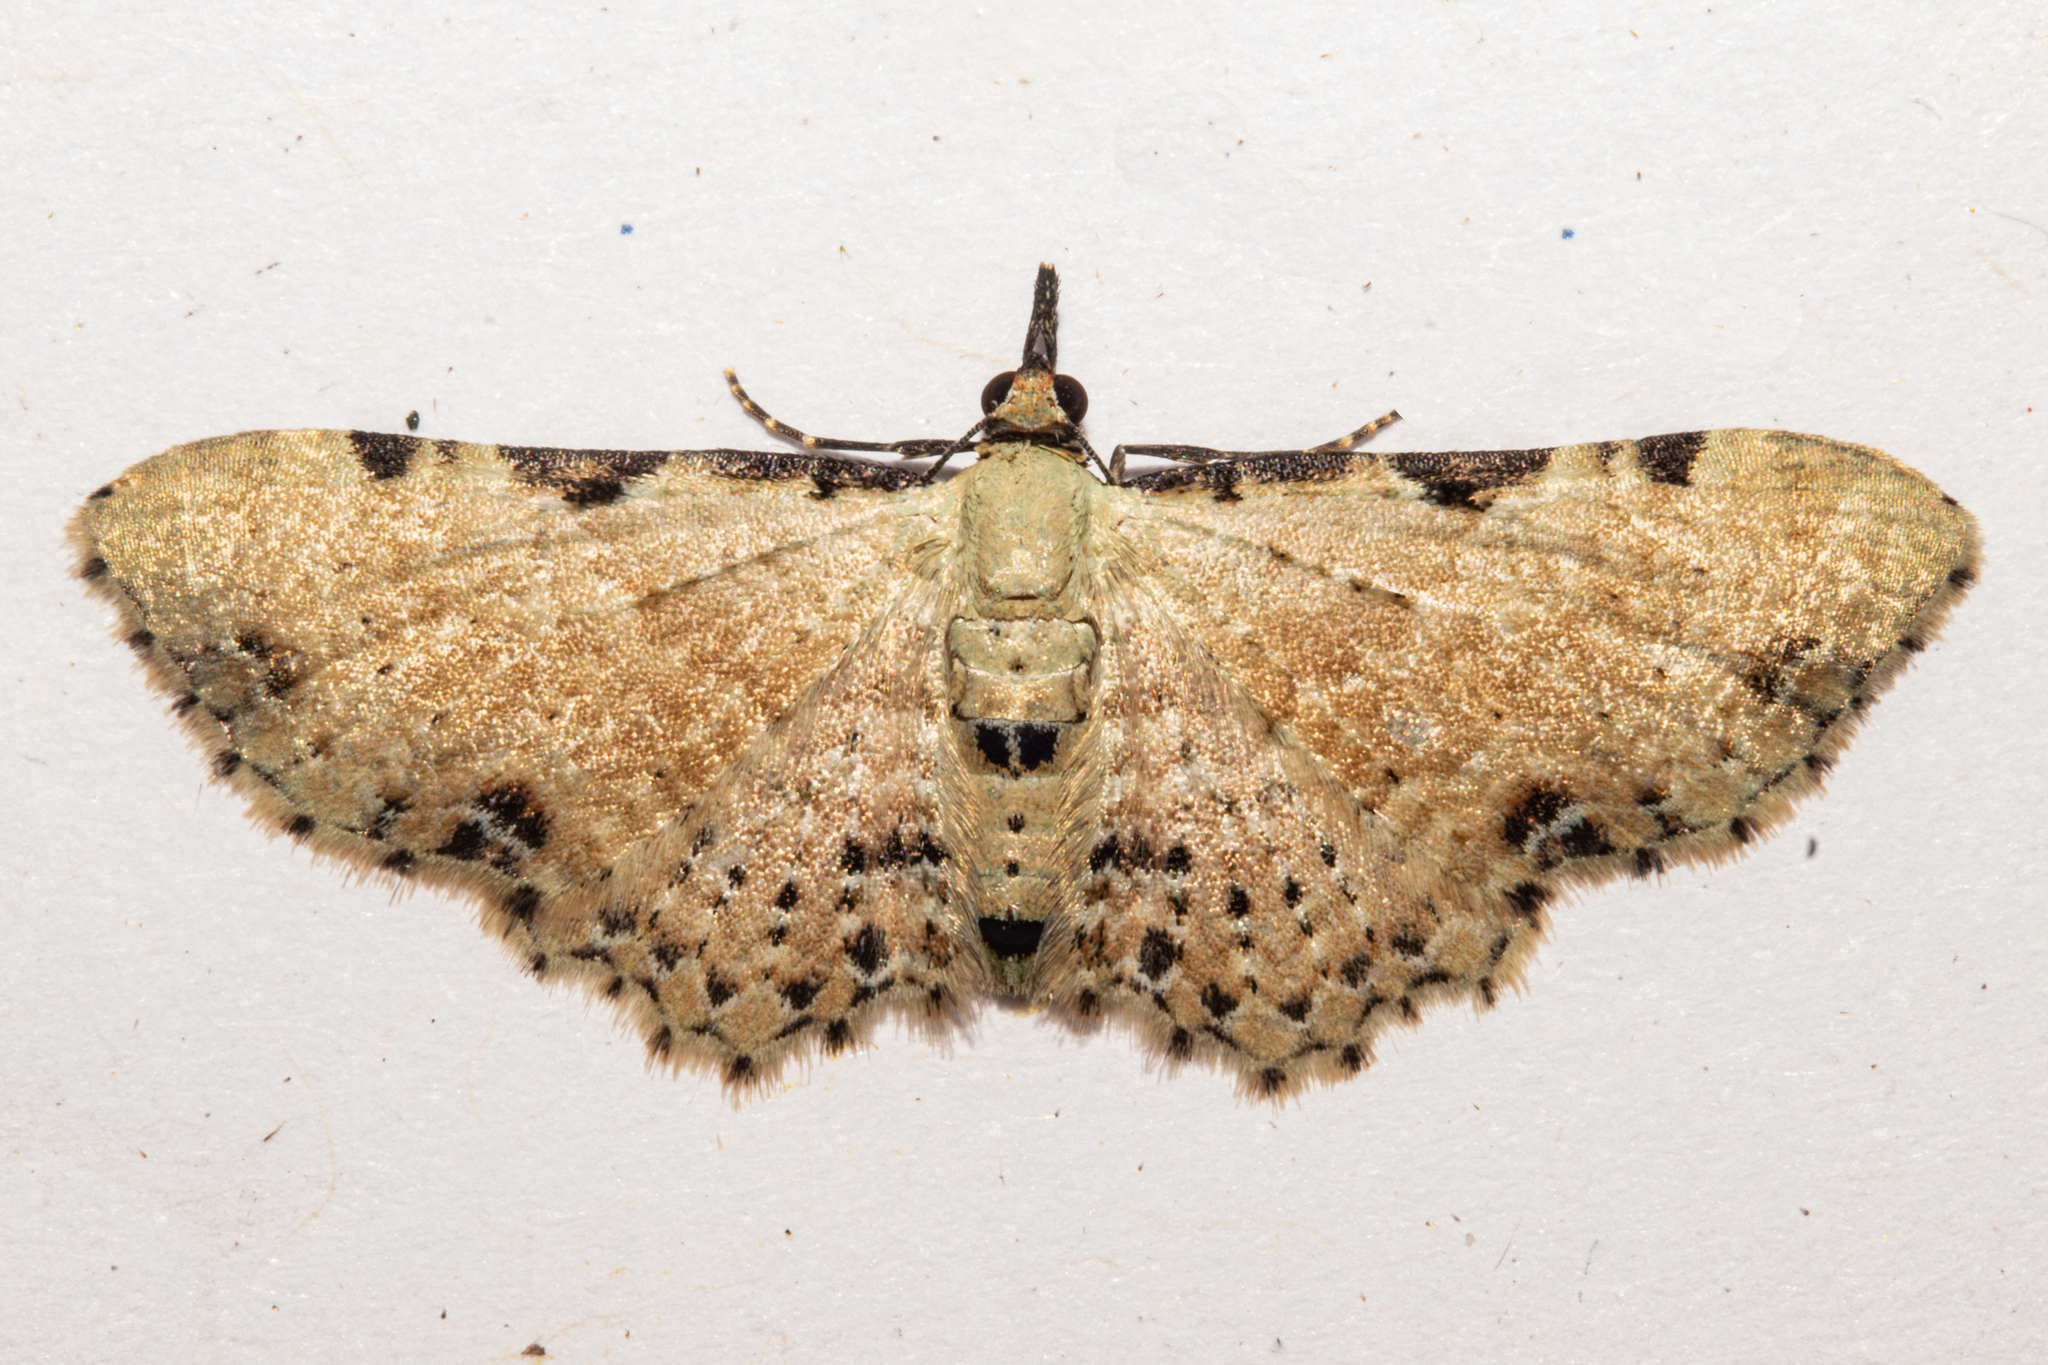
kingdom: Animalia
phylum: Arthropoda
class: Insecta
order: Lepidoptera
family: Geometridae
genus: Pasiphila
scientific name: Pasiphila fumipalpata
